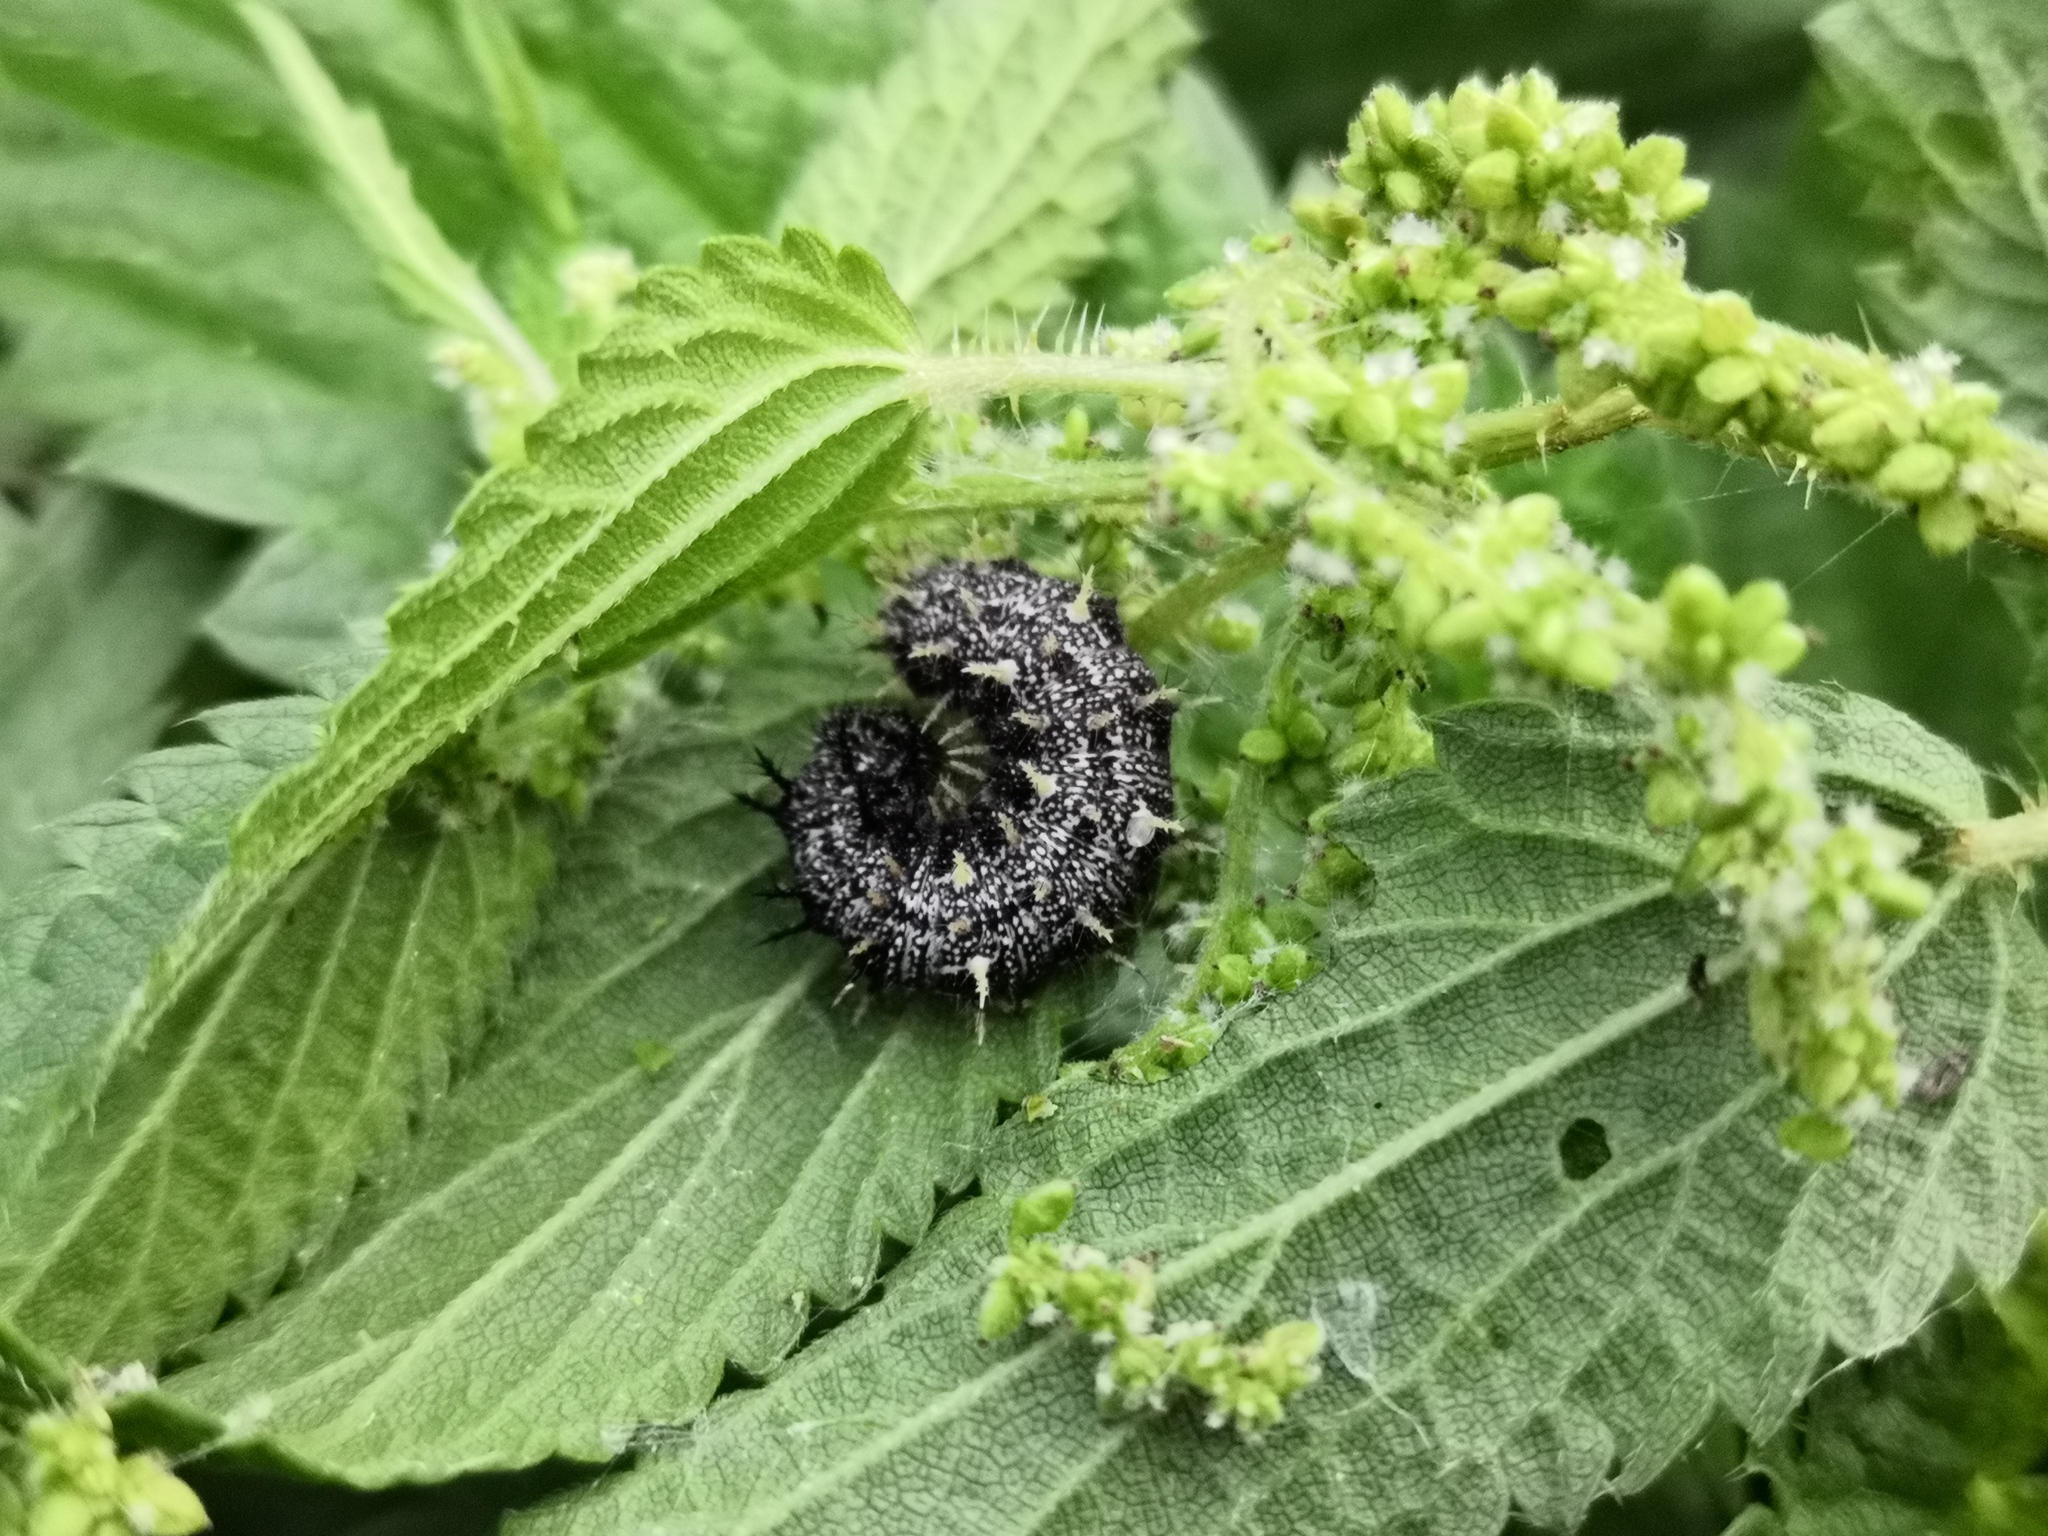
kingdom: Animalia
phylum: Arthropoda
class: Insecta
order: Lepidoptera
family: Nymphalidae
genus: Vanessa
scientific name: Vanessa atalanta
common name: Red admiral
